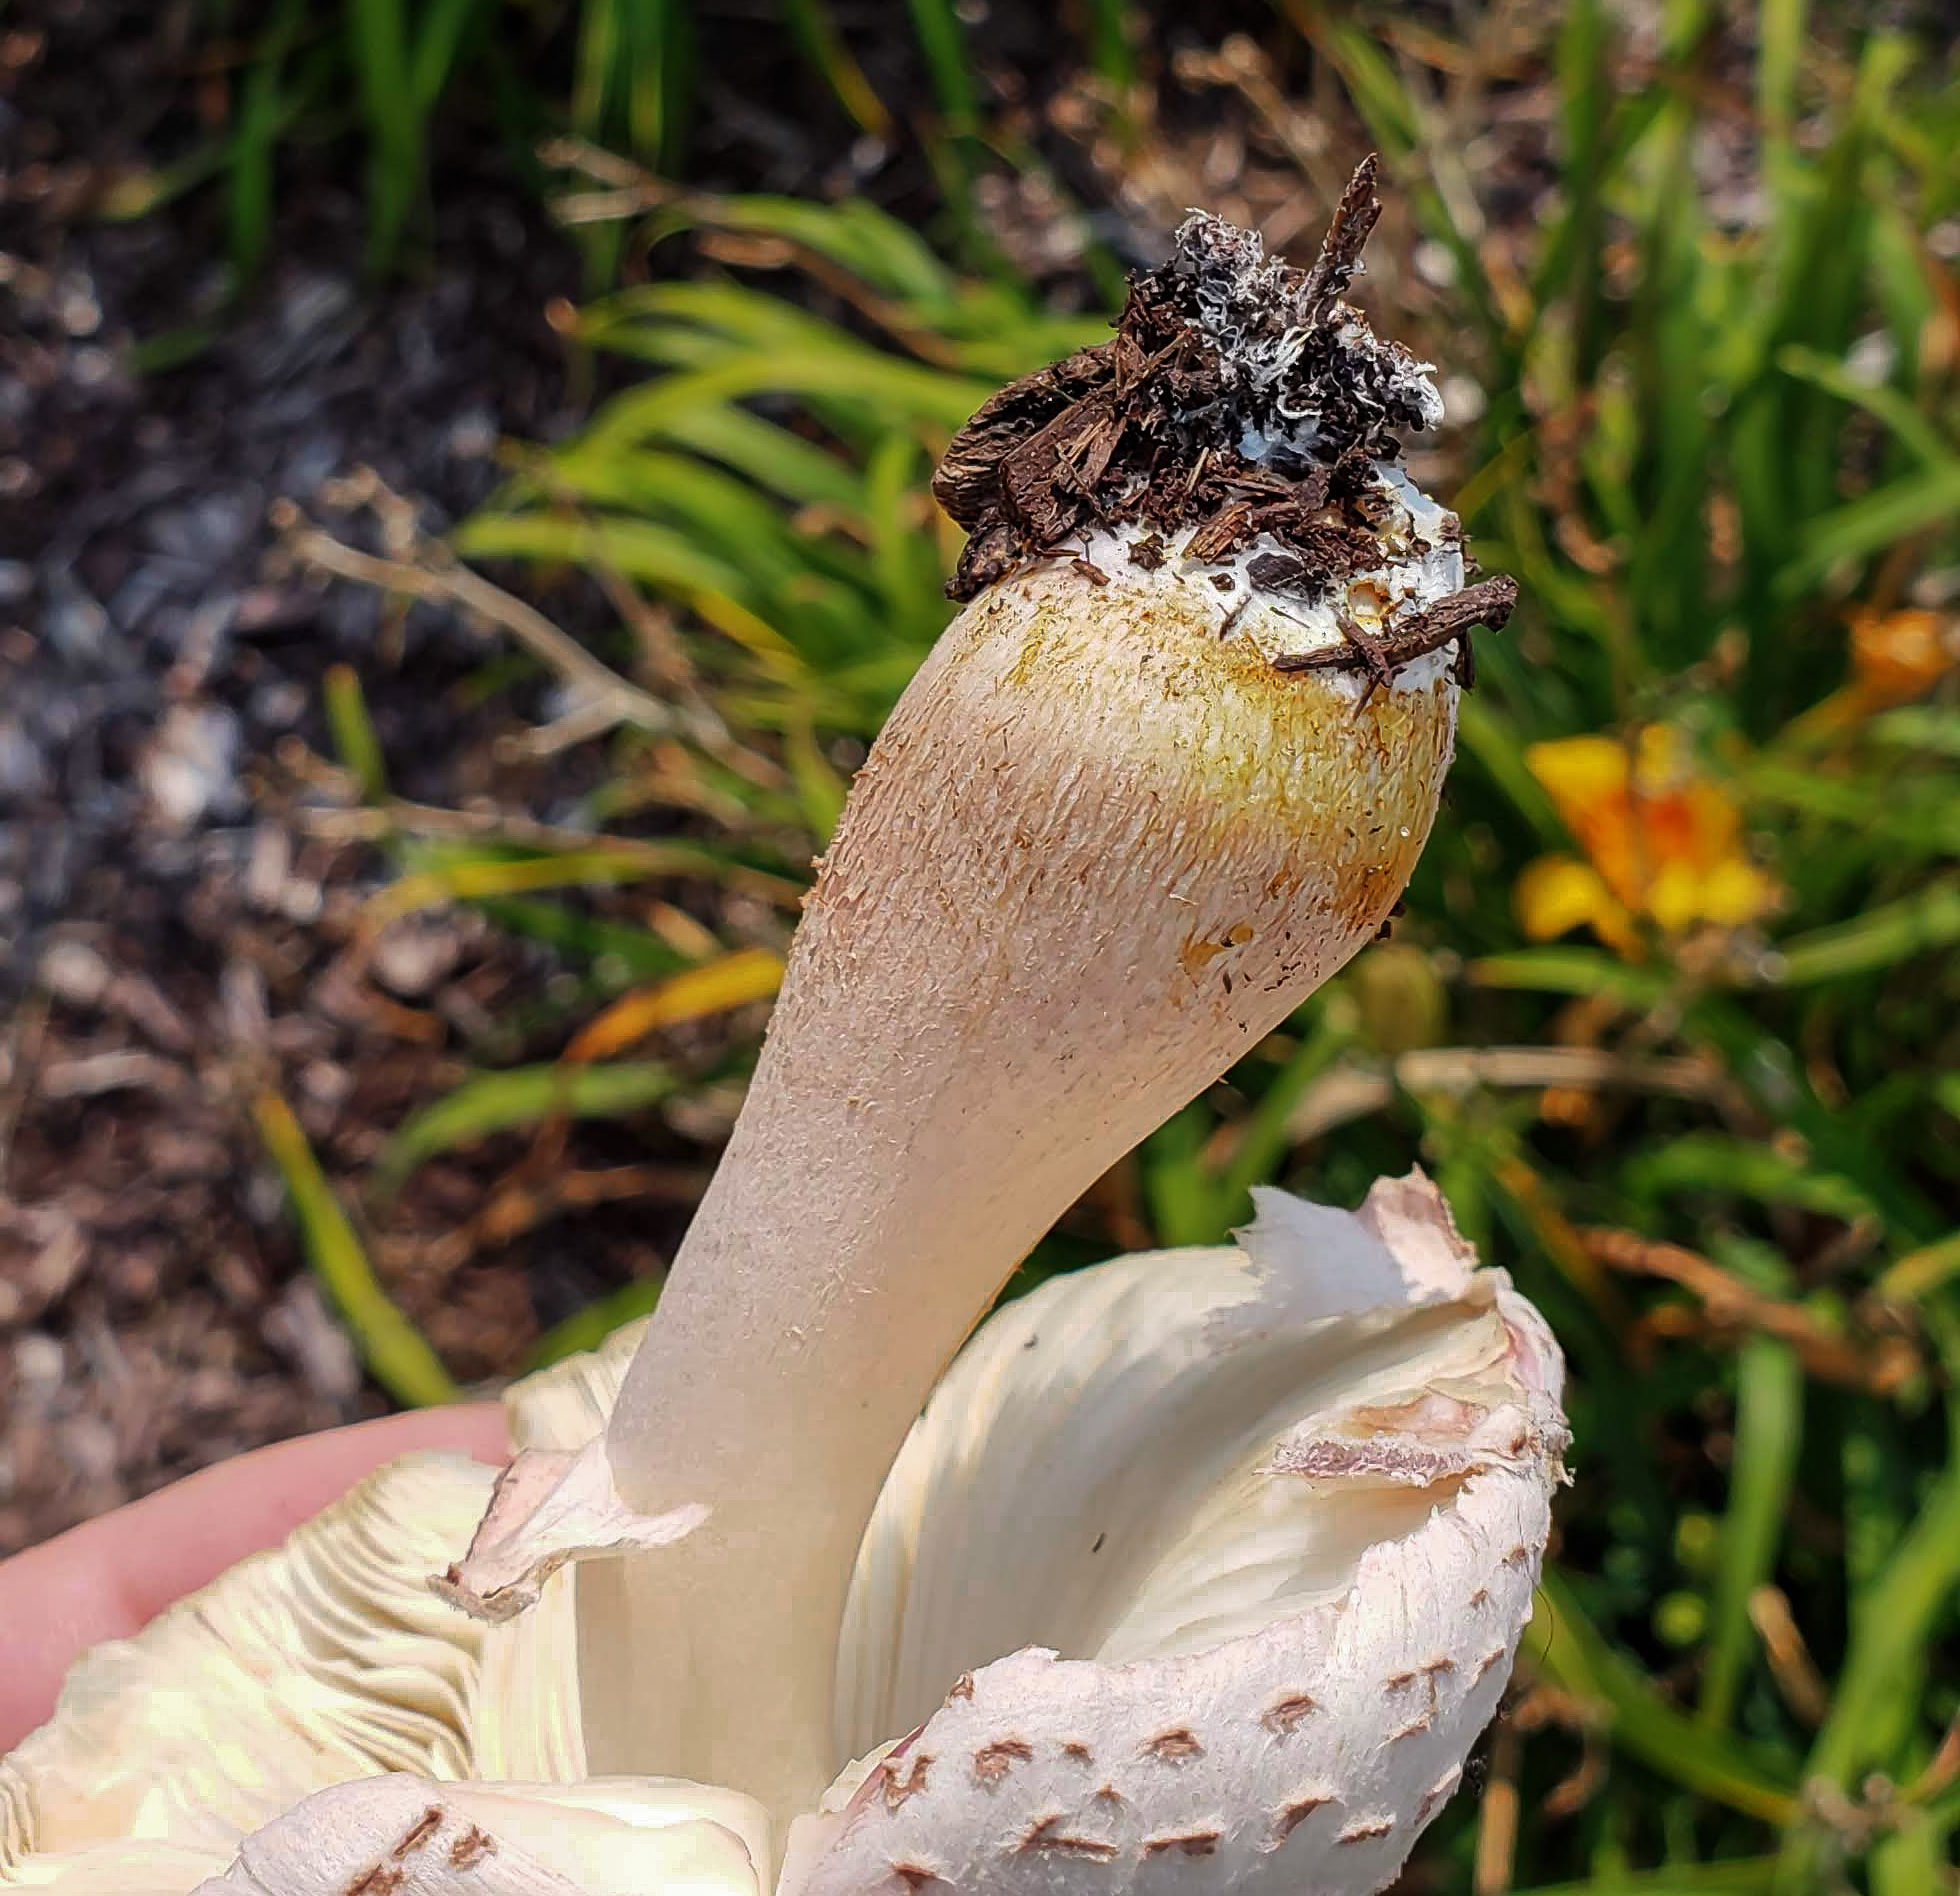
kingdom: Fungi
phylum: Basidiomycota
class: Agaricomycetes
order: Agaricales
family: Agaricaceae
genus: Leucoagaricus
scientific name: Leucoagaricus americanus
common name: Reddening lepiota
